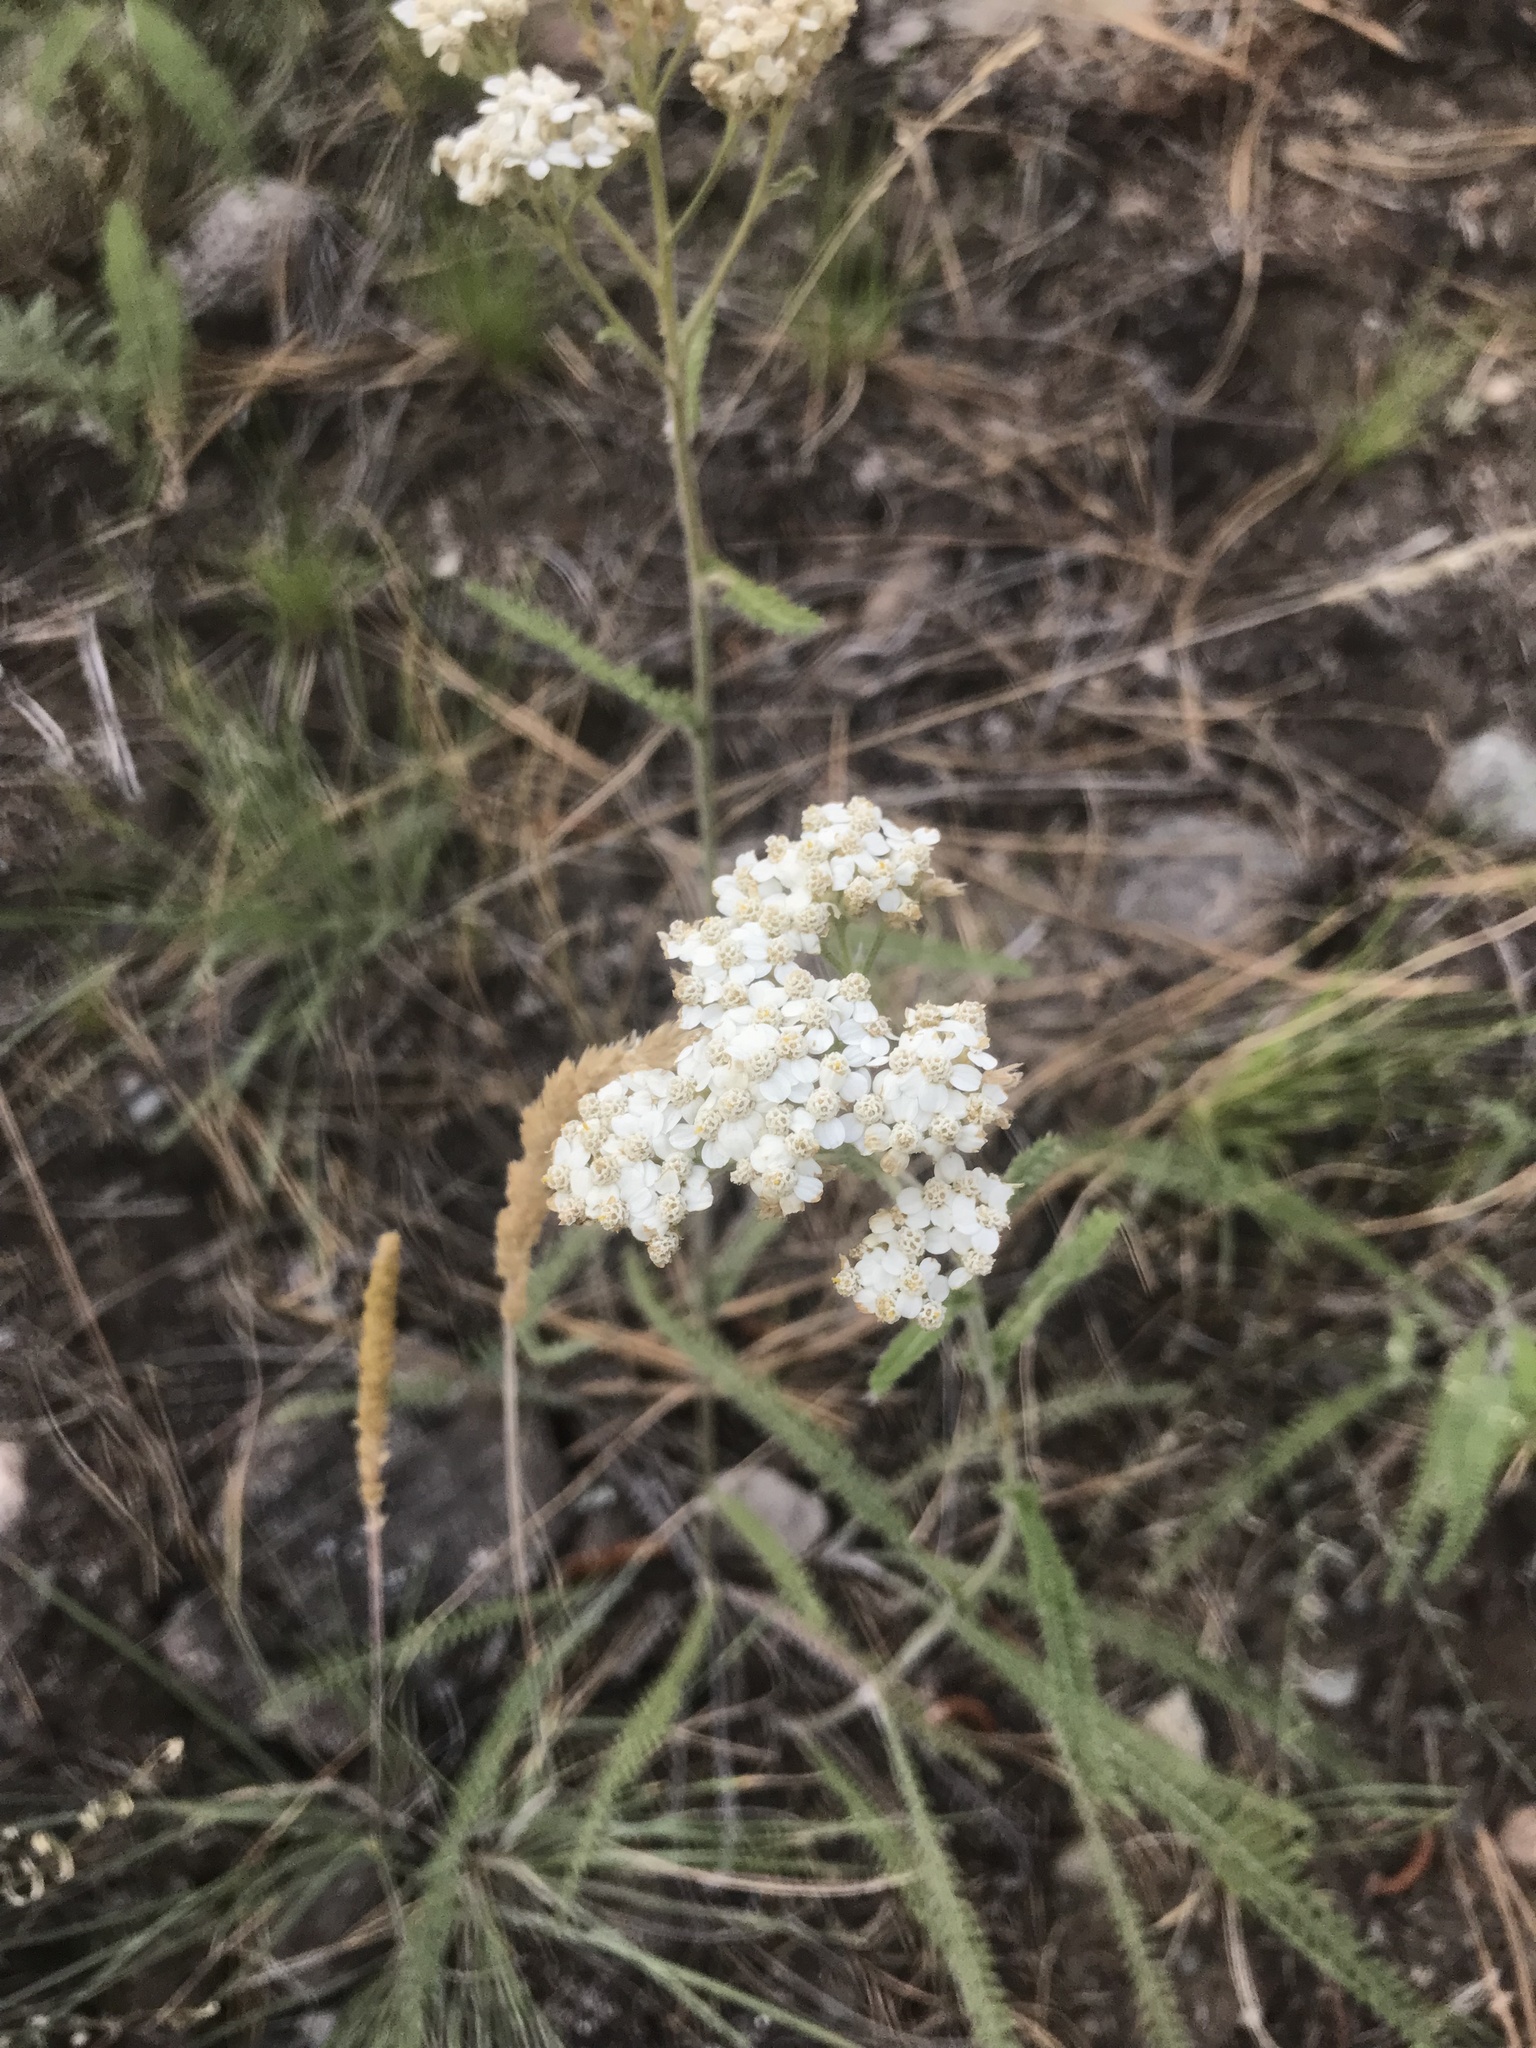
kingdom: Plantae
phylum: Tracheophyta
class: Magnoliopsida
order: Asterales
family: Asteraceae
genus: Achillea
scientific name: Achillea millefolium
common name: Yarrow
